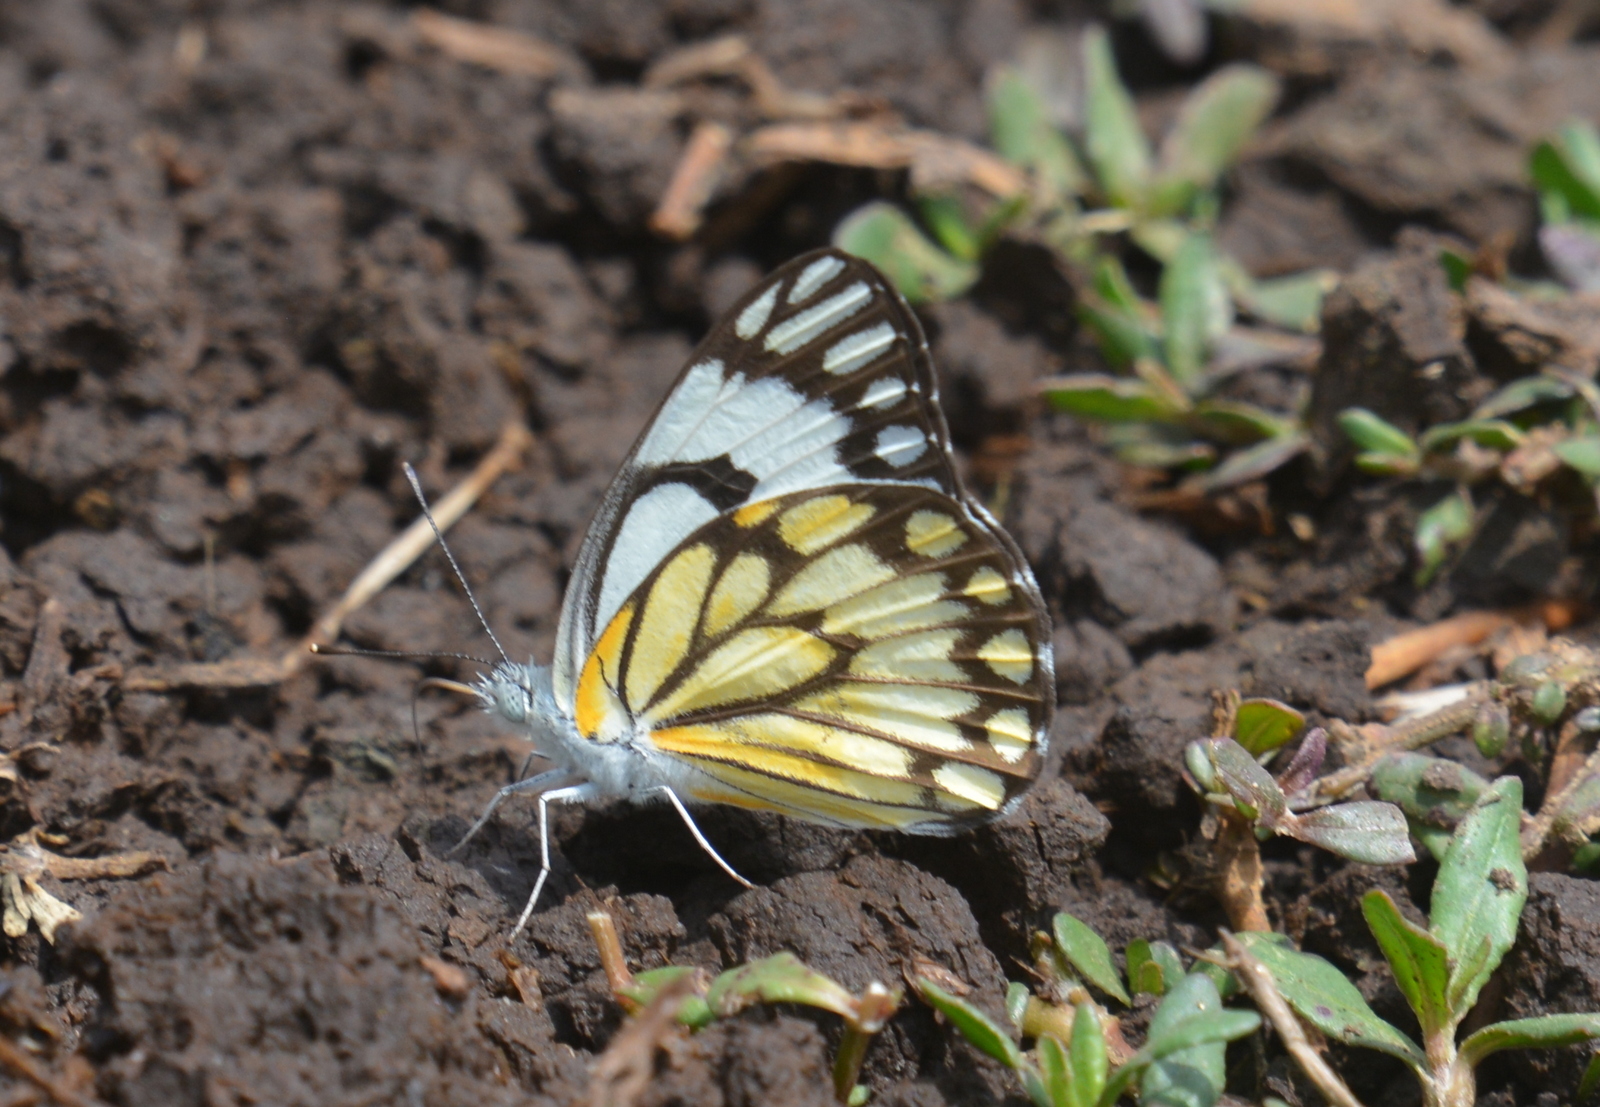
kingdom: Animalia
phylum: Arthropoda
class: Insecta
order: Lepidoptera
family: Pieridae
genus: Belenois
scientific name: Belenois aurota
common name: Brown-veined white
